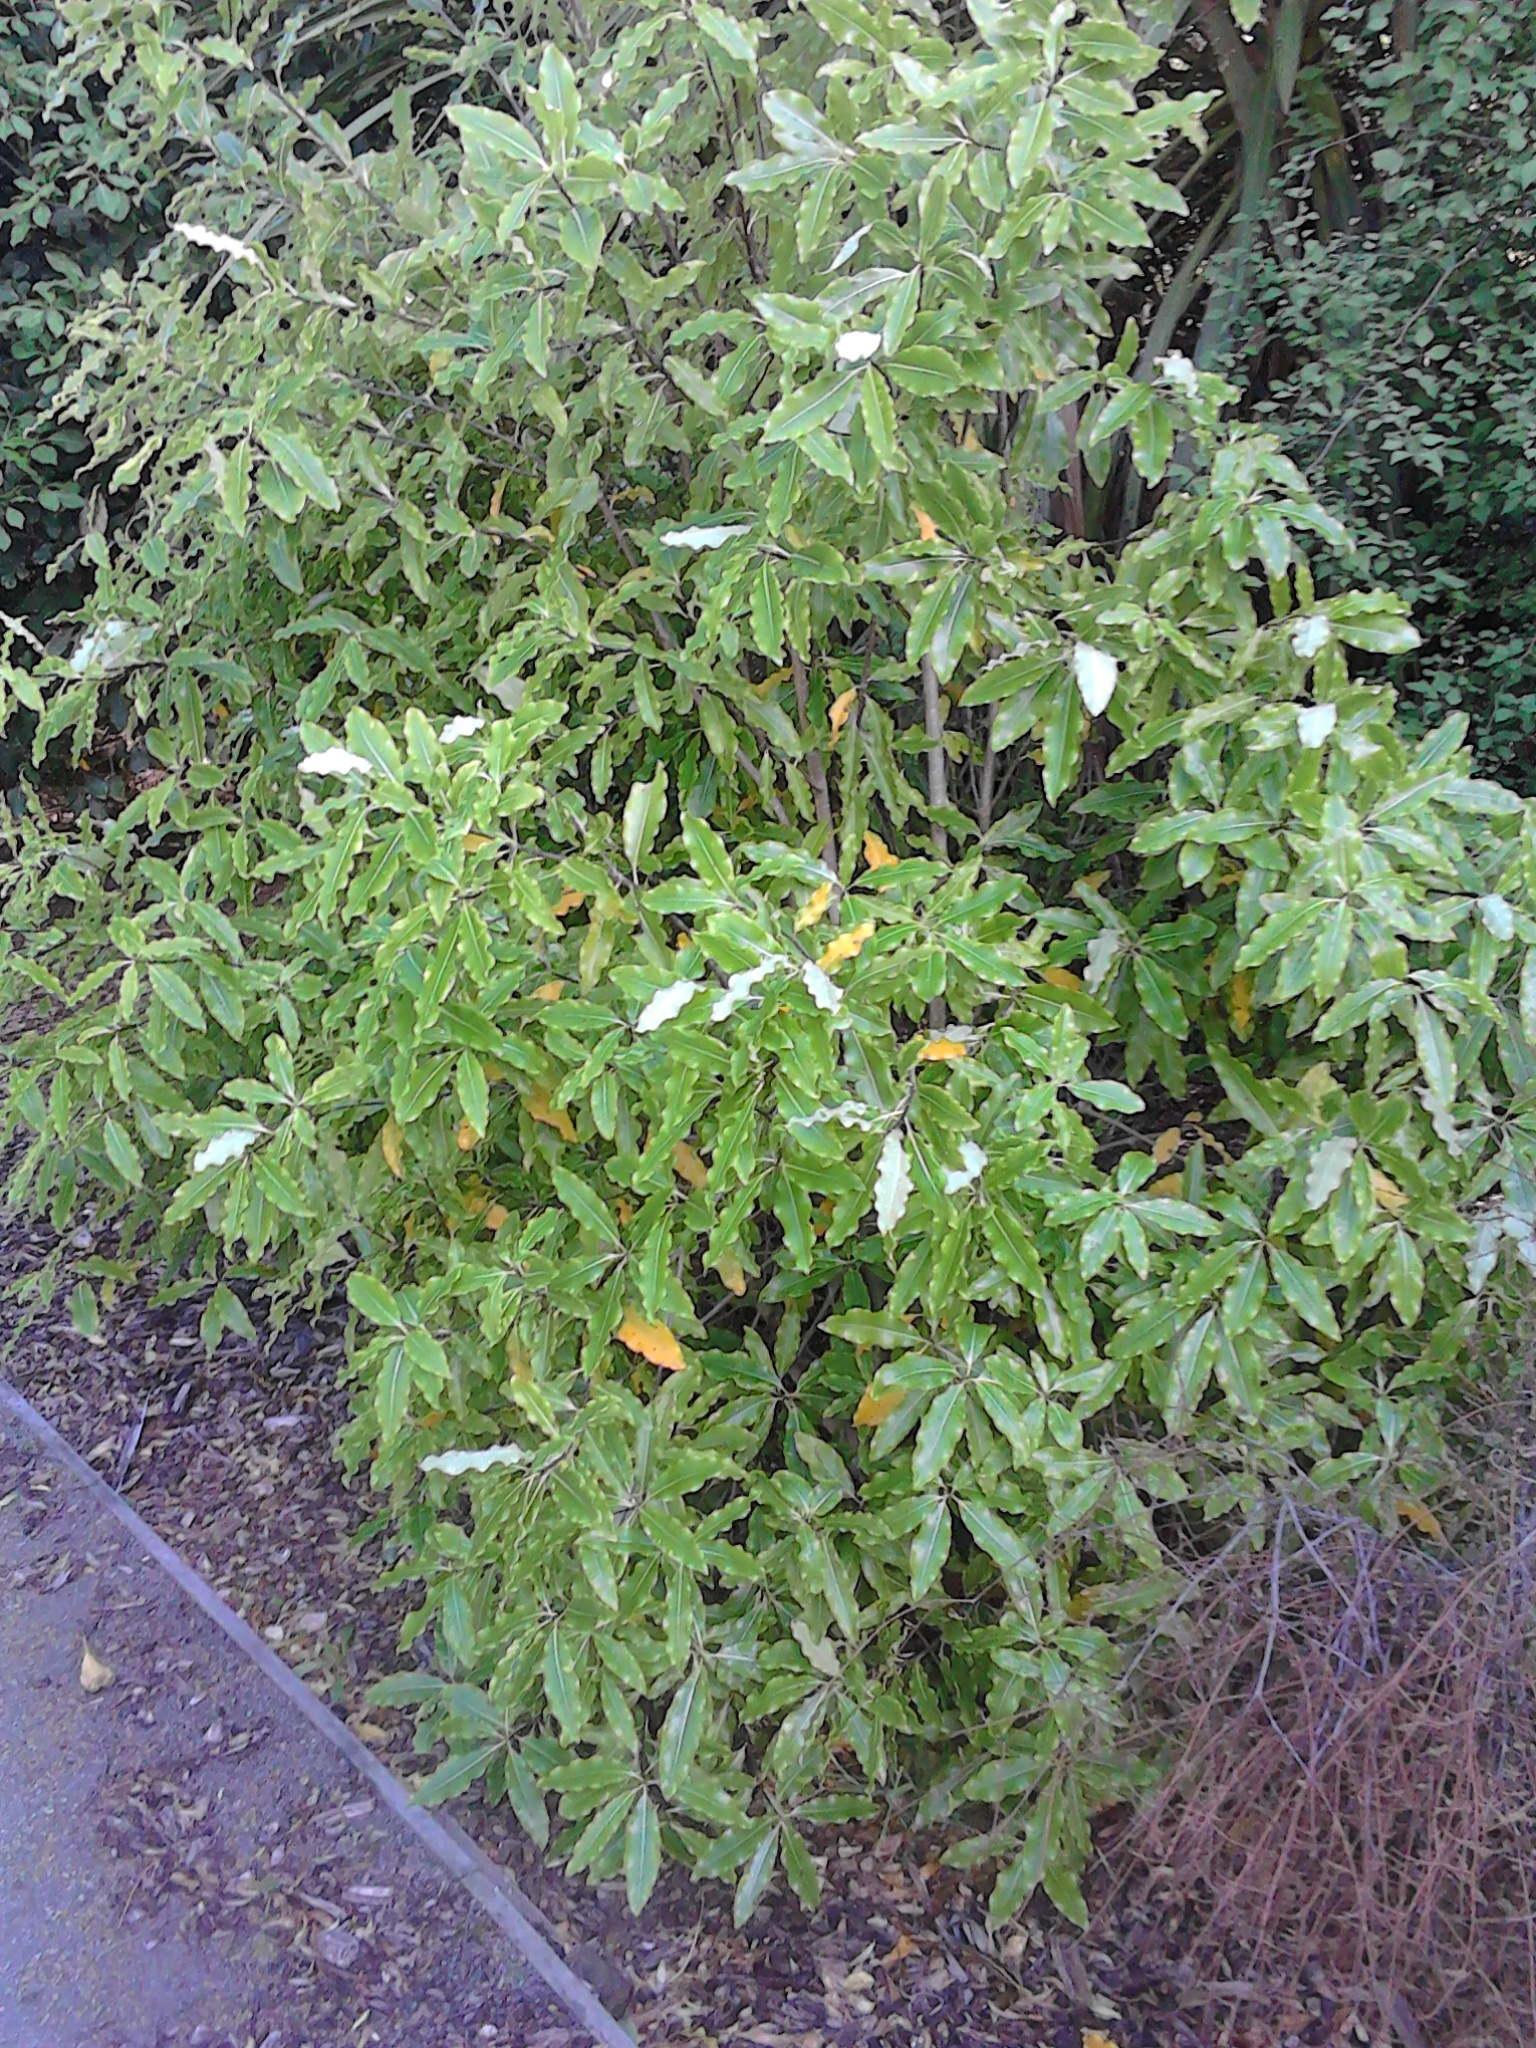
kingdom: Plantae
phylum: Tracheophyta
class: Magnoliopsida
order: Apiales
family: Pittosporaceae
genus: Pittosporum
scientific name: Pittosporum eugenioides
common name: Lemonwood
